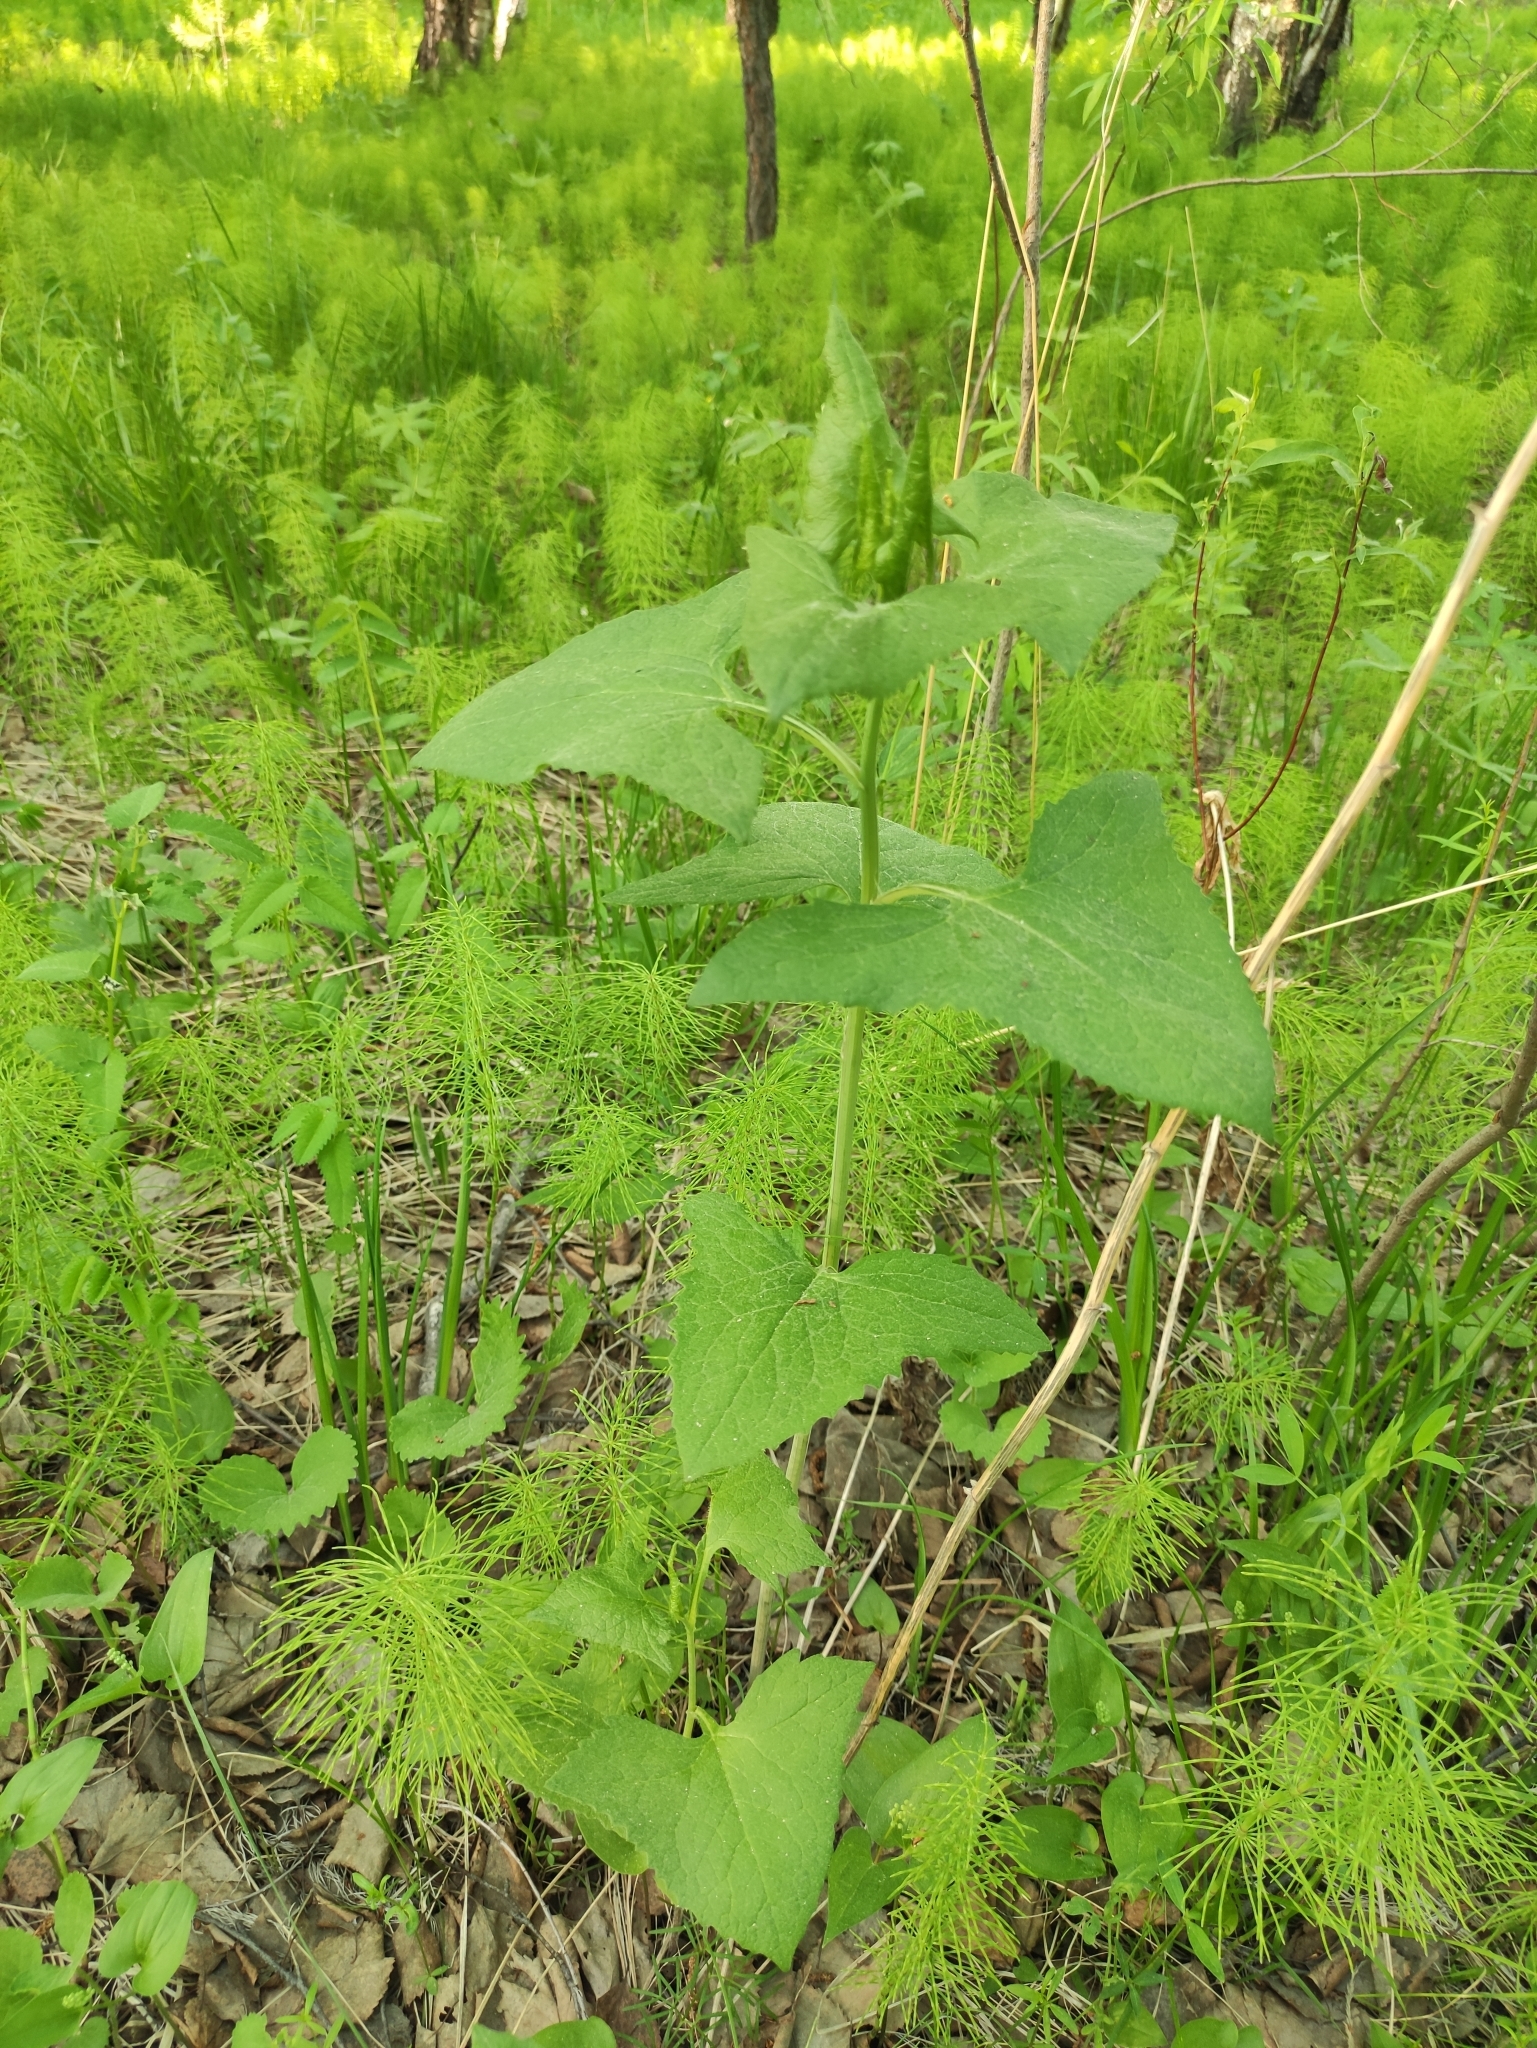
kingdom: Plantae
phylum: Tracheophyta
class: Magnoliopsida
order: Asterales
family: Asteraceae
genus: Parasenecio
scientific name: Parasenecio hastatus
